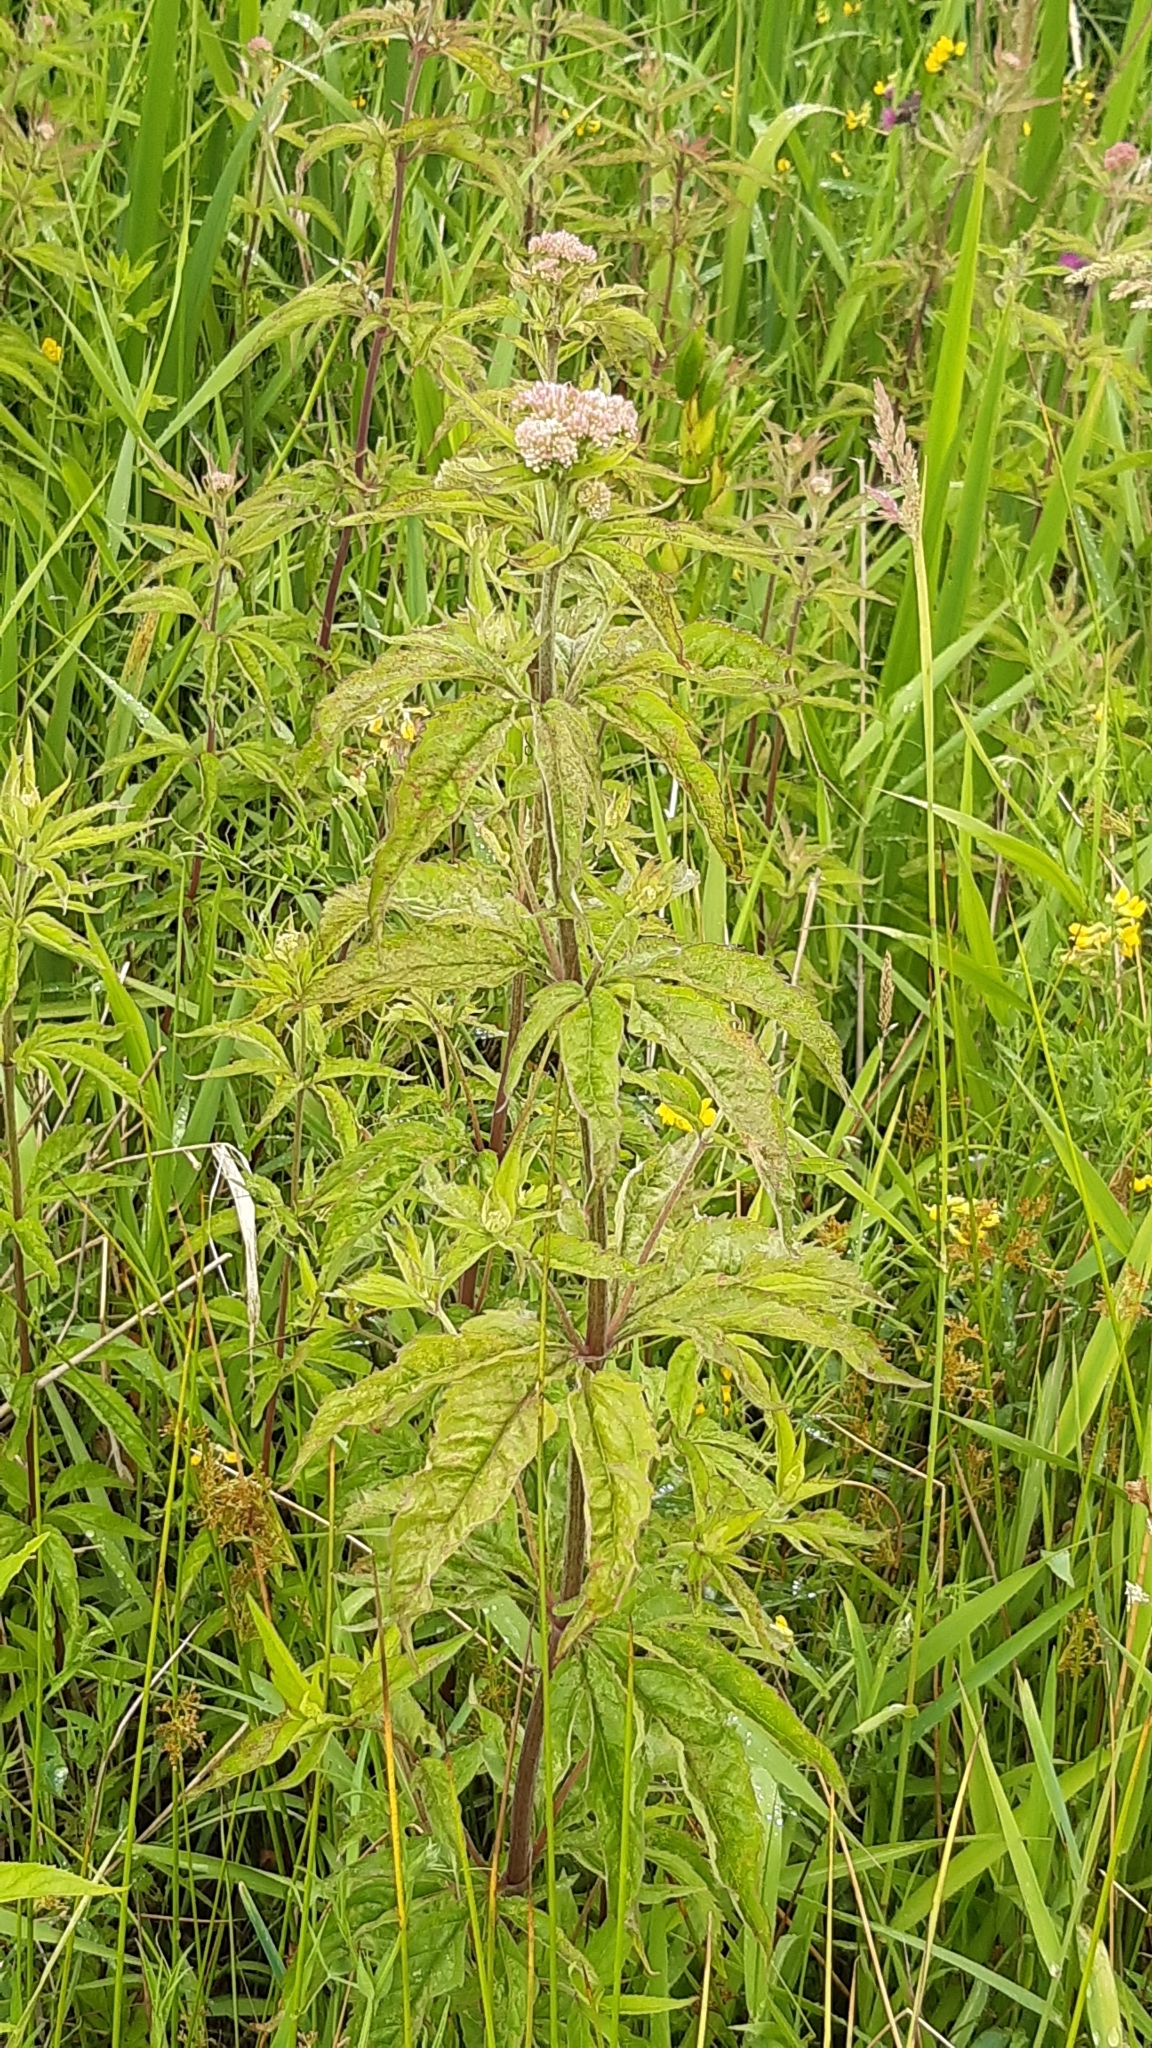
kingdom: Plantae
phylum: Tracheophyta
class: Magnoliopsida
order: Asterales
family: Asteraceae
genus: Eupatorium
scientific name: Eupatorium cannabinum
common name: Hemp-agrimony
